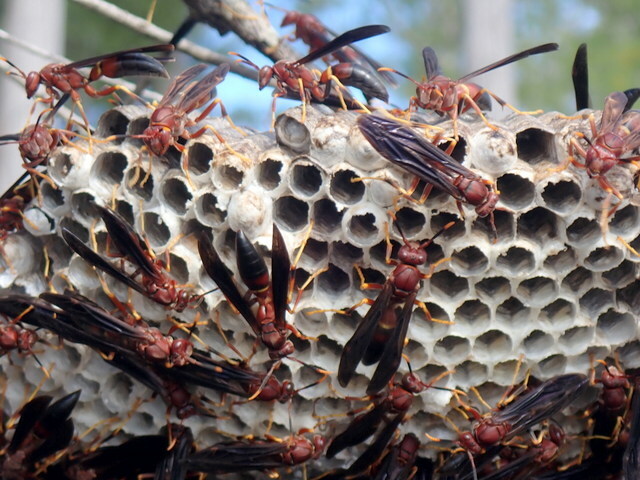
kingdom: Animalia
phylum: Arthropoda
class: Insecta
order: Hymenoptera
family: Eumenidae
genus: Polistes
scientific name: Polistes annularis
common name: Ringed paper wasp
